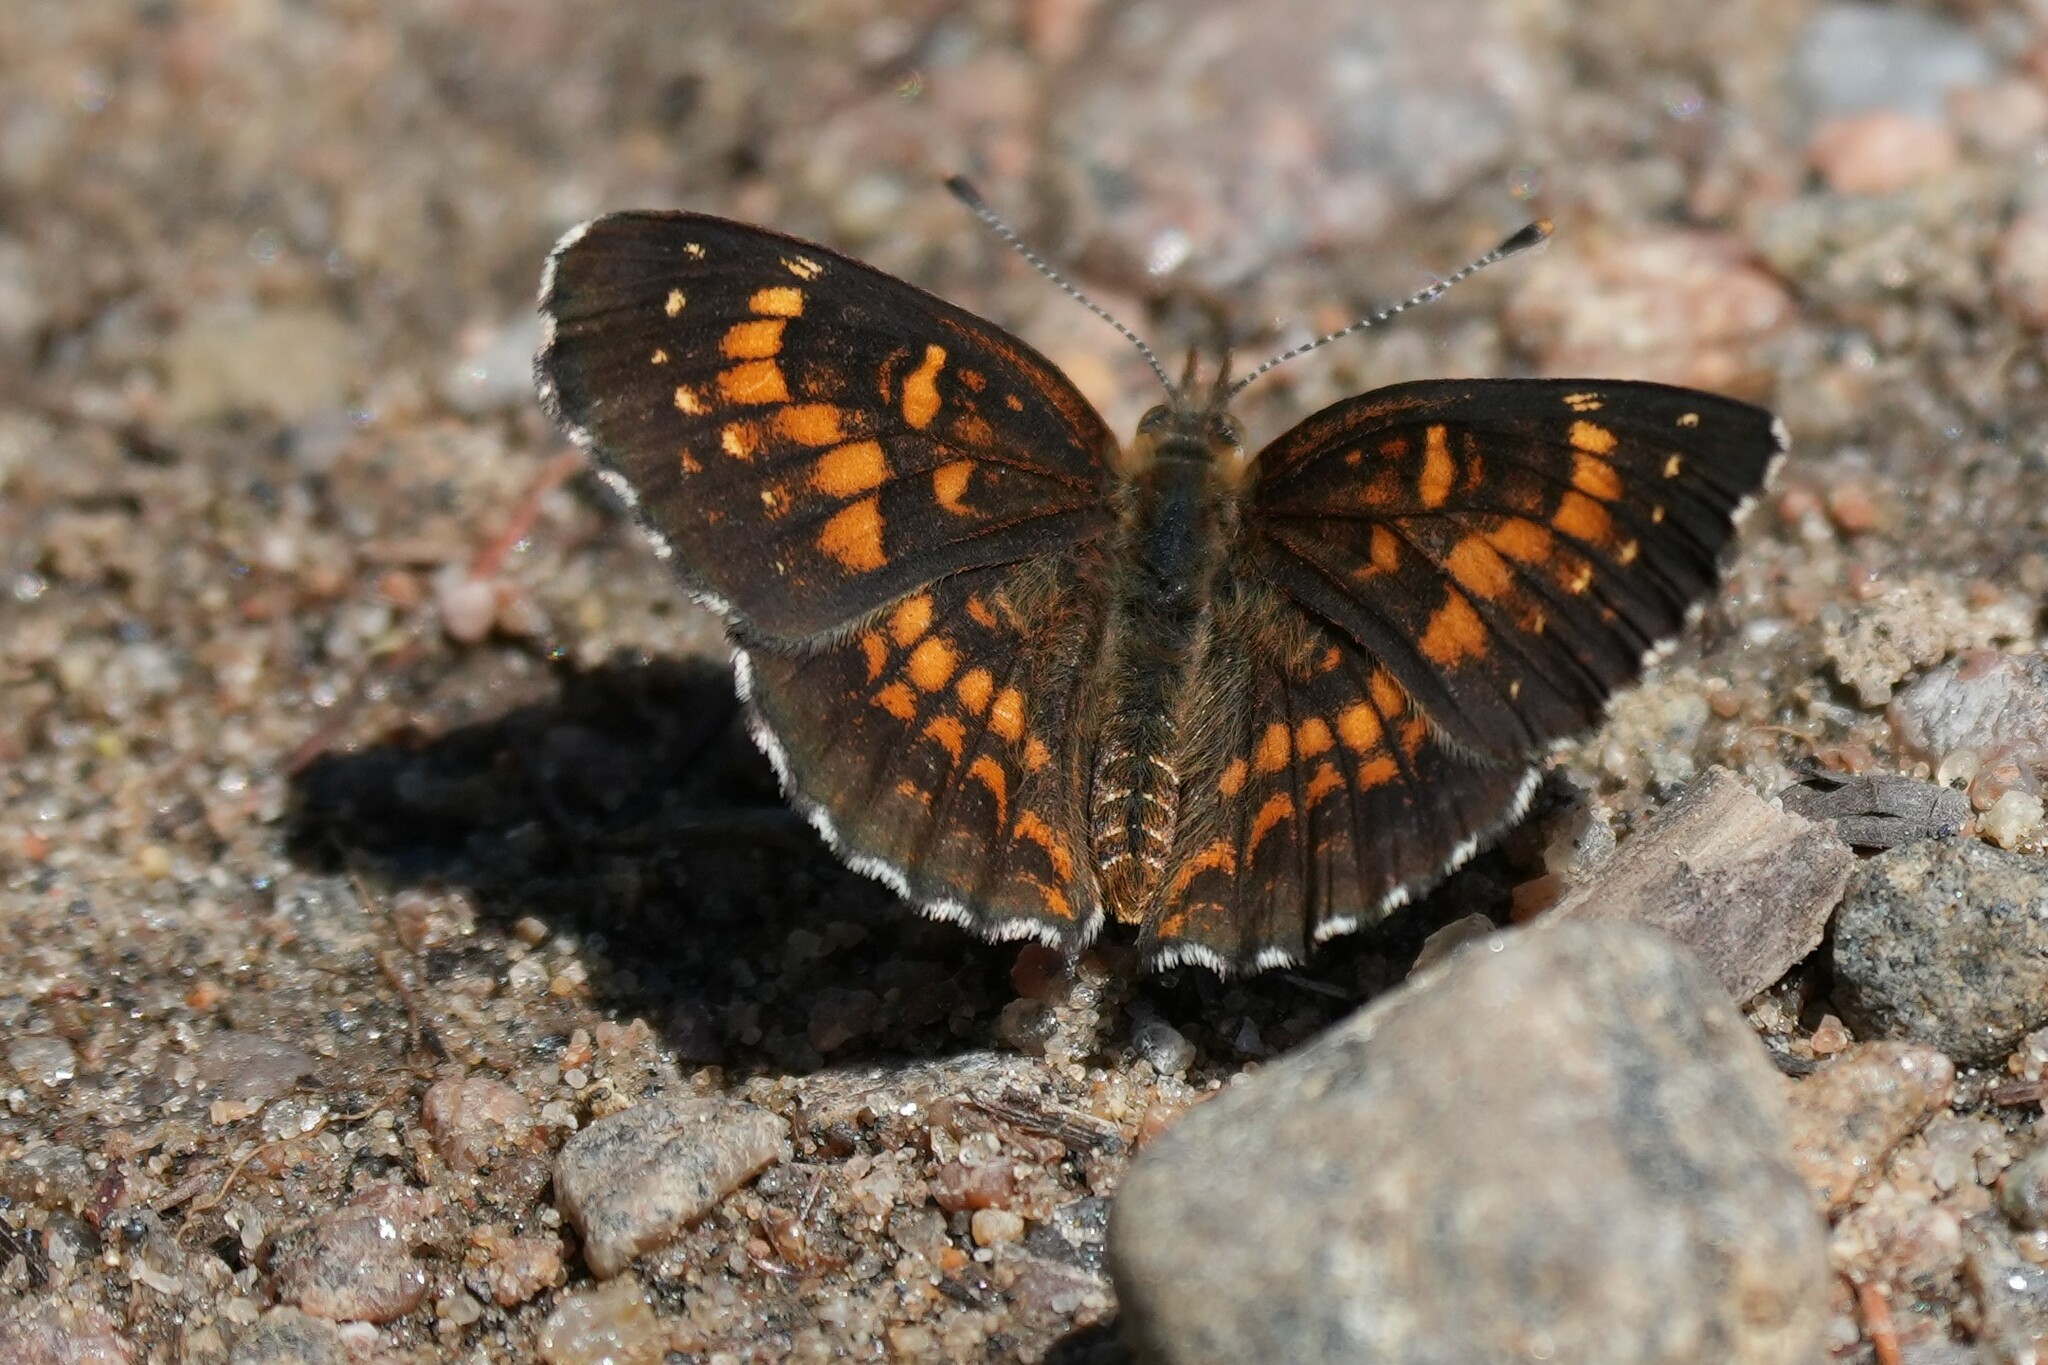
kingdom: Animalia
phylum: Arthropoda
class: Insecta
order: Lepidoptera
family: Nymphalidae
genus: Chlosyne
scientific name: Chlosyne harrisii
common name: Harris's checkerspot
